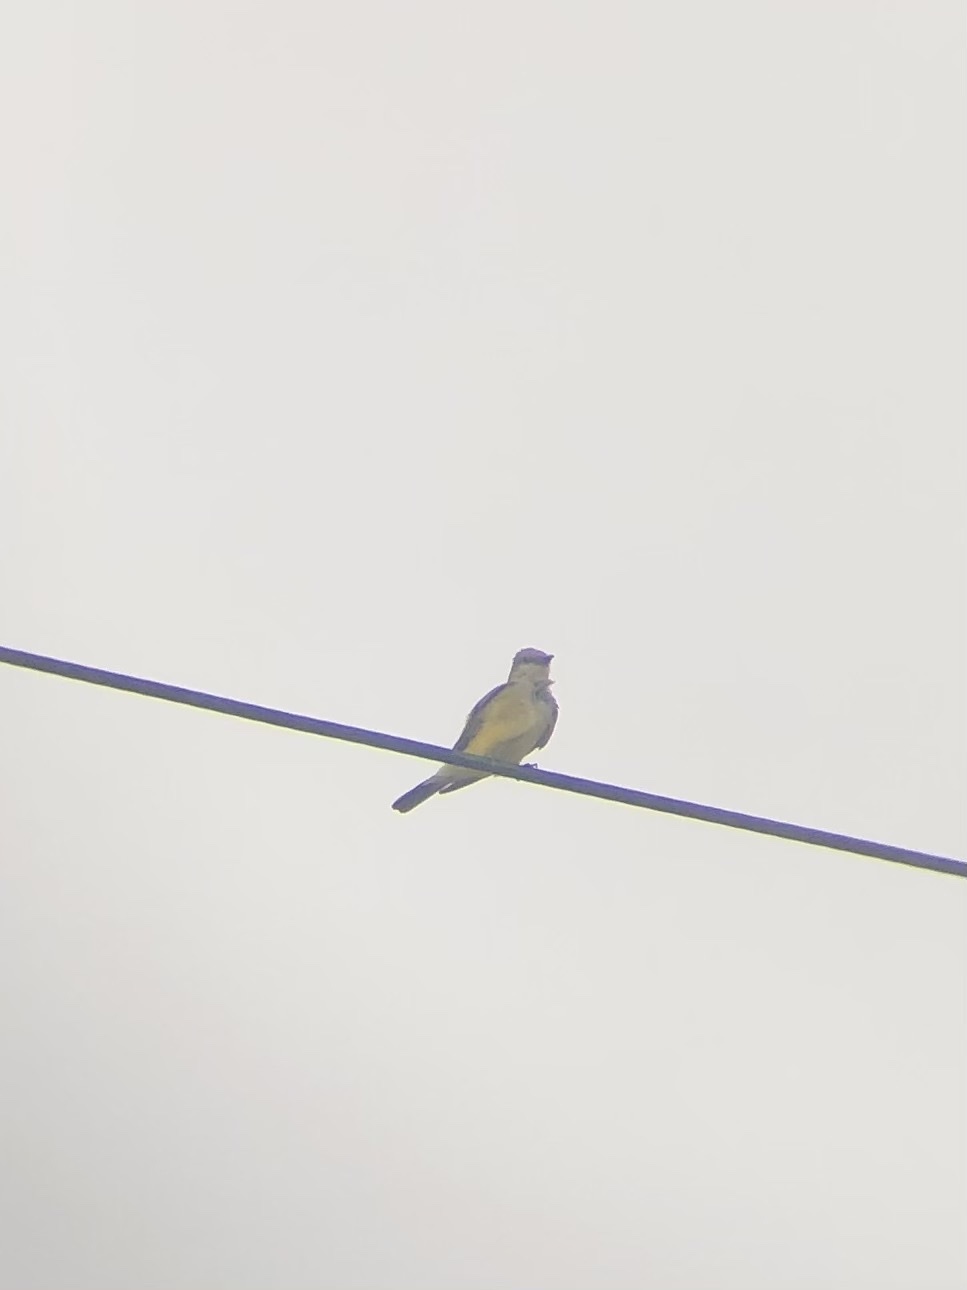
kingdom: Animalia
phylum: Chordata
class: Aves
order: Passeriformes
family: Tyrannidae
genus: Tyrannus
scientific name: Tyrannus verticalis
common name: Western kingbird
